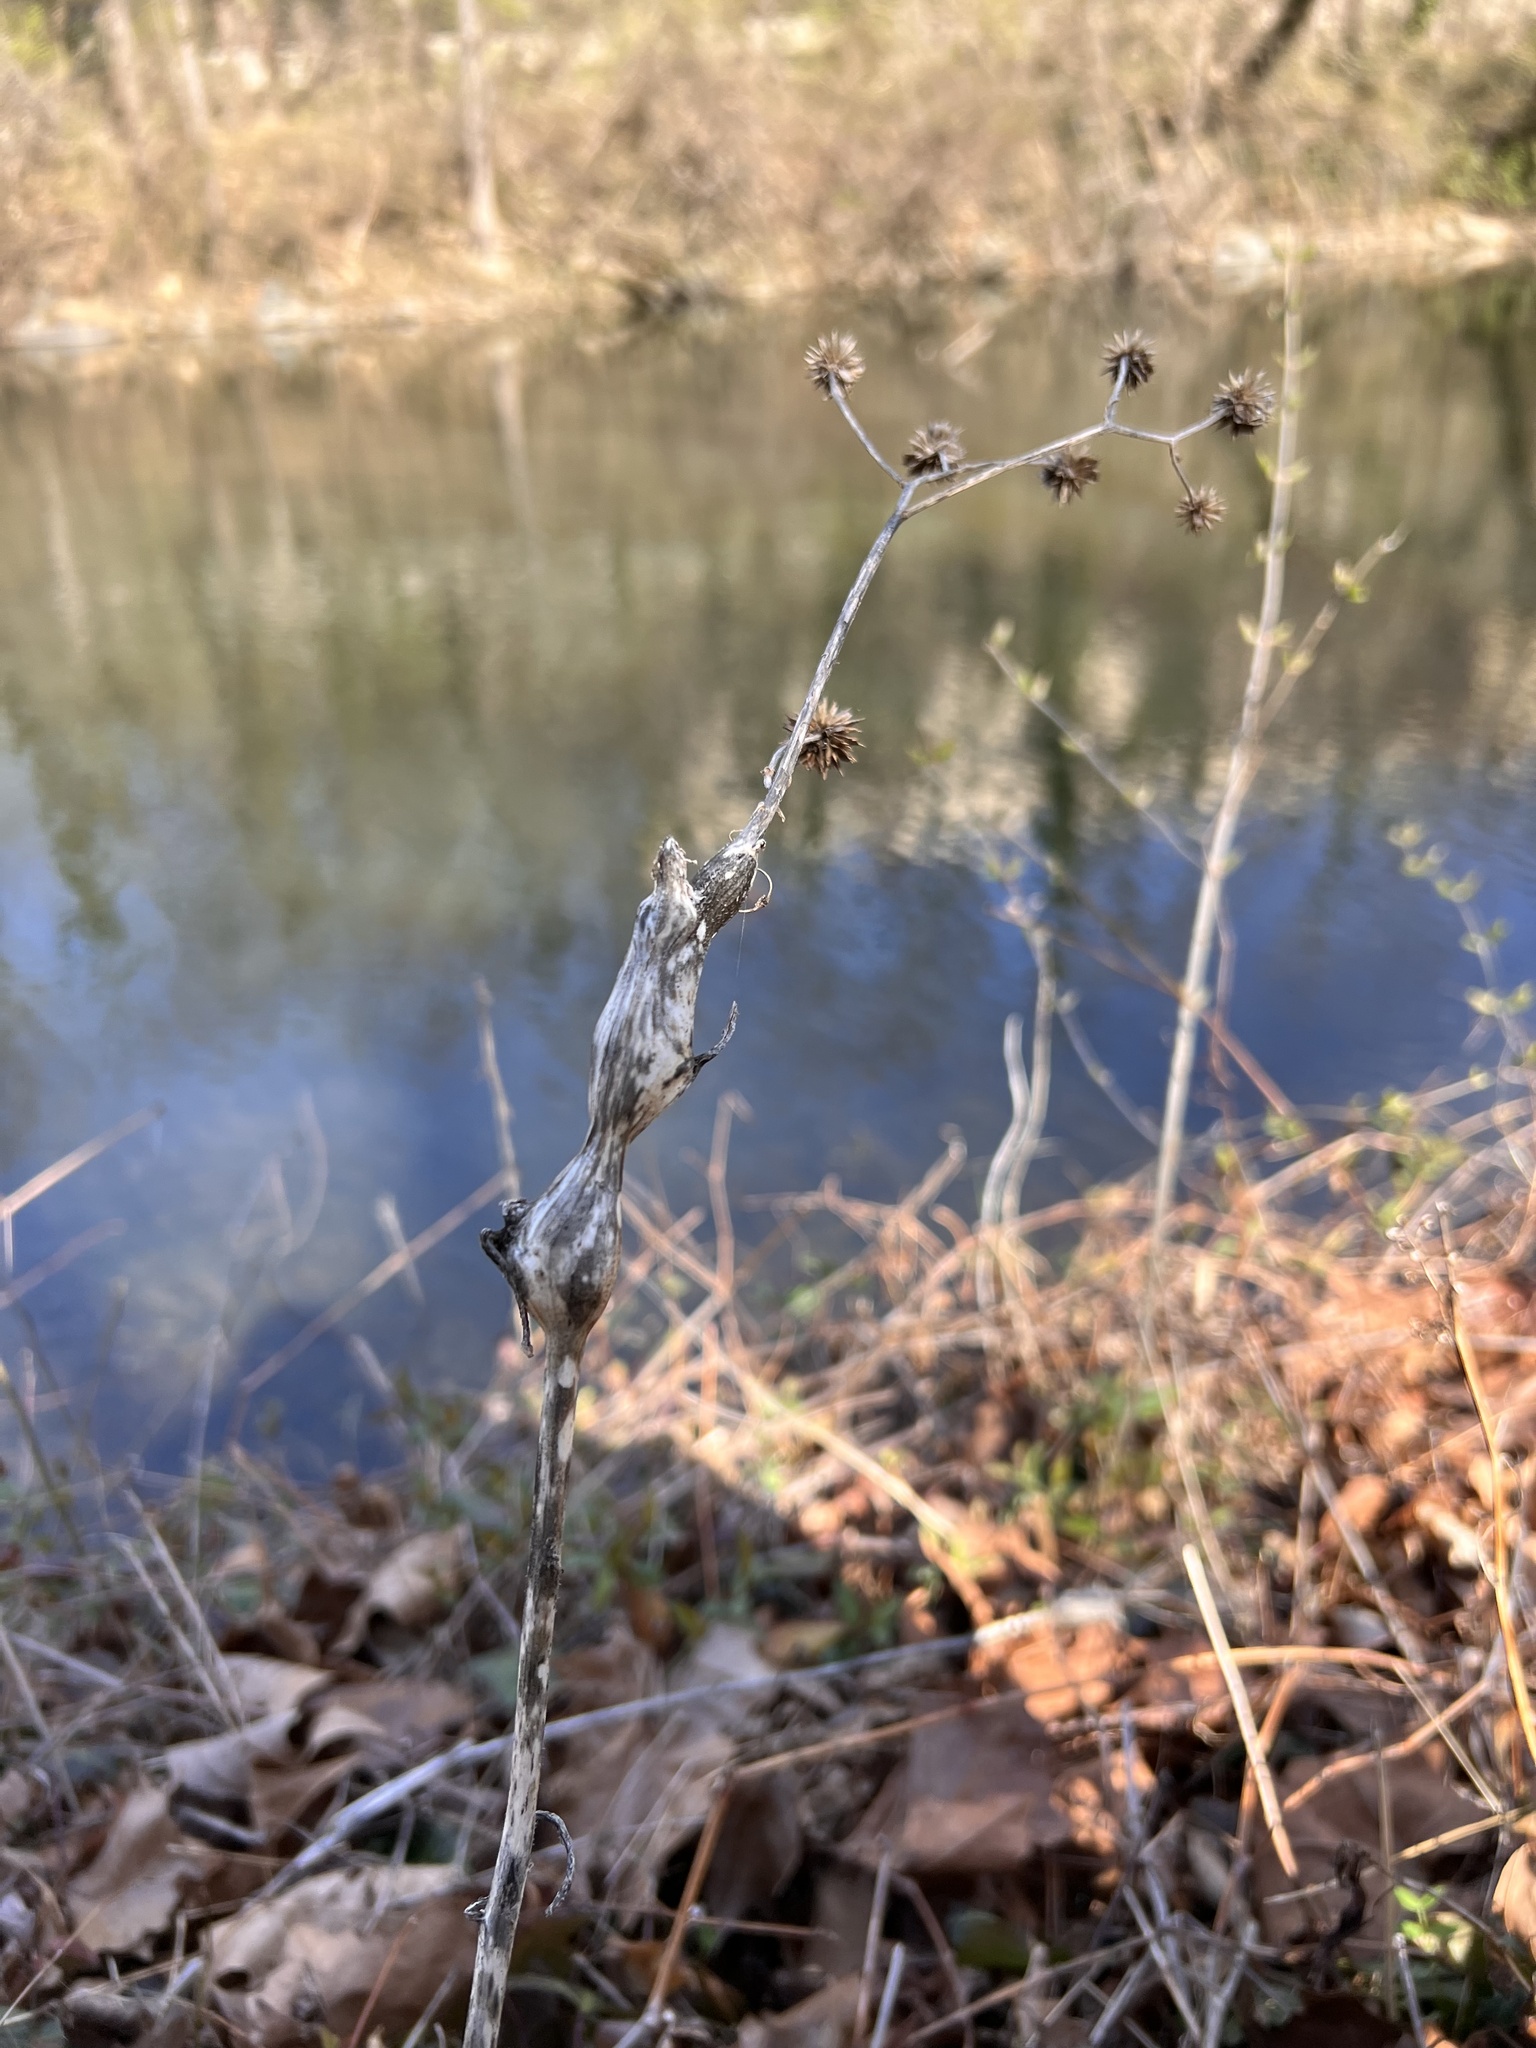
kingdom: Animalia
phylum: Arthropoda
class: Insecta
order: Diptera
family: Tephritidae
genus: Eurosta
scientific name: Eurosta solidaginis
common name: Goldenrod gall fly
